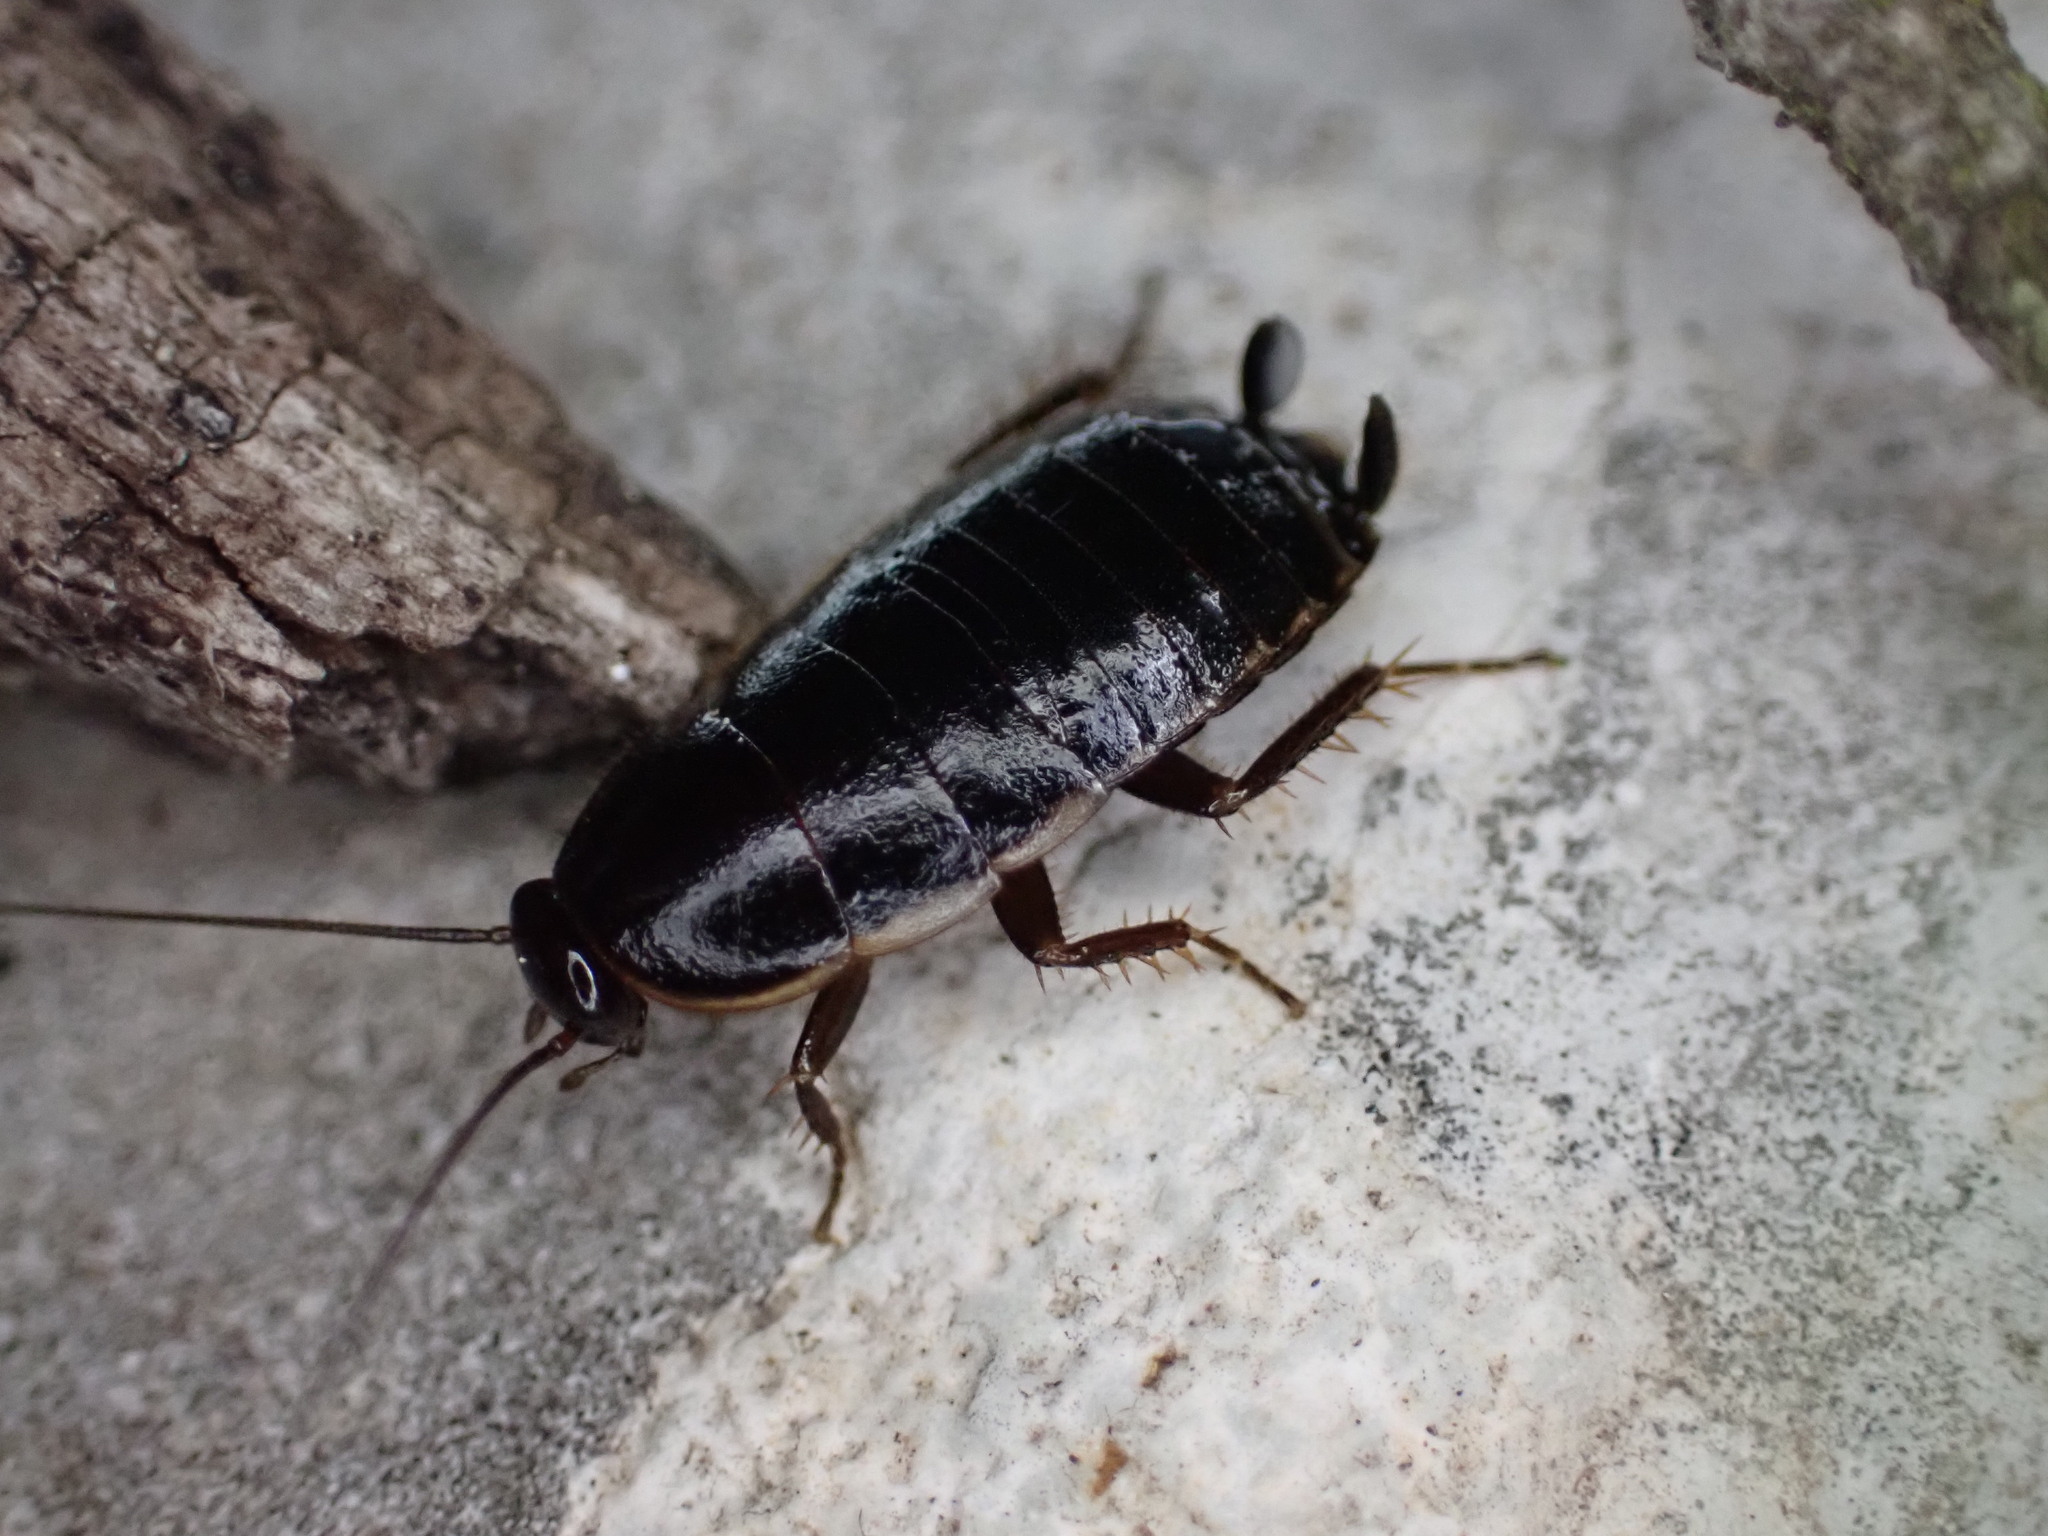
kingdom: Animalia
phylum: Arthropoda
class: Insecta
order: Blattodea
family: Ectobiidae
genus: Loboptera
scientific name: Loboptera canariensis
